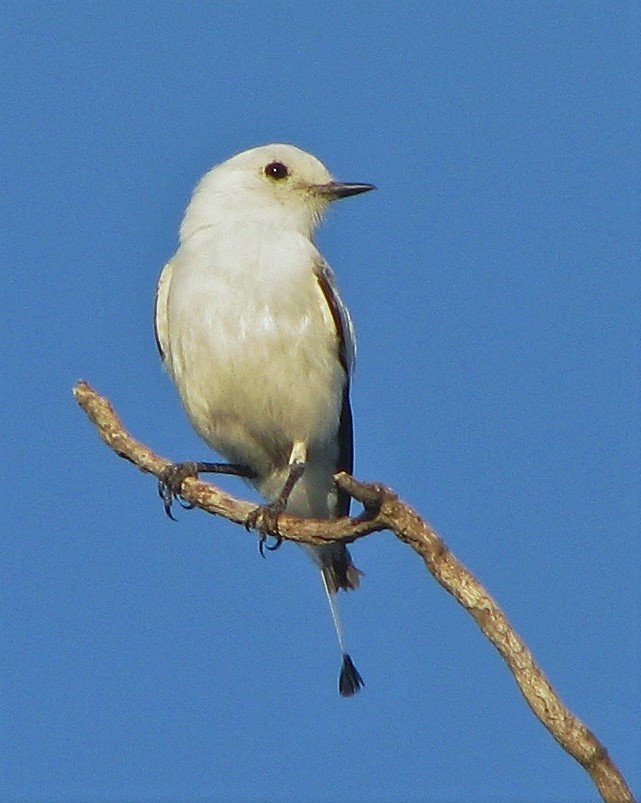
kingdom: Animalia
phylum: Chordata
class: Aves
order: Passeriformes
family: Tyrannidae
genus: Xolmis
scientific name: Xolmis irupero
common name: White monjita
